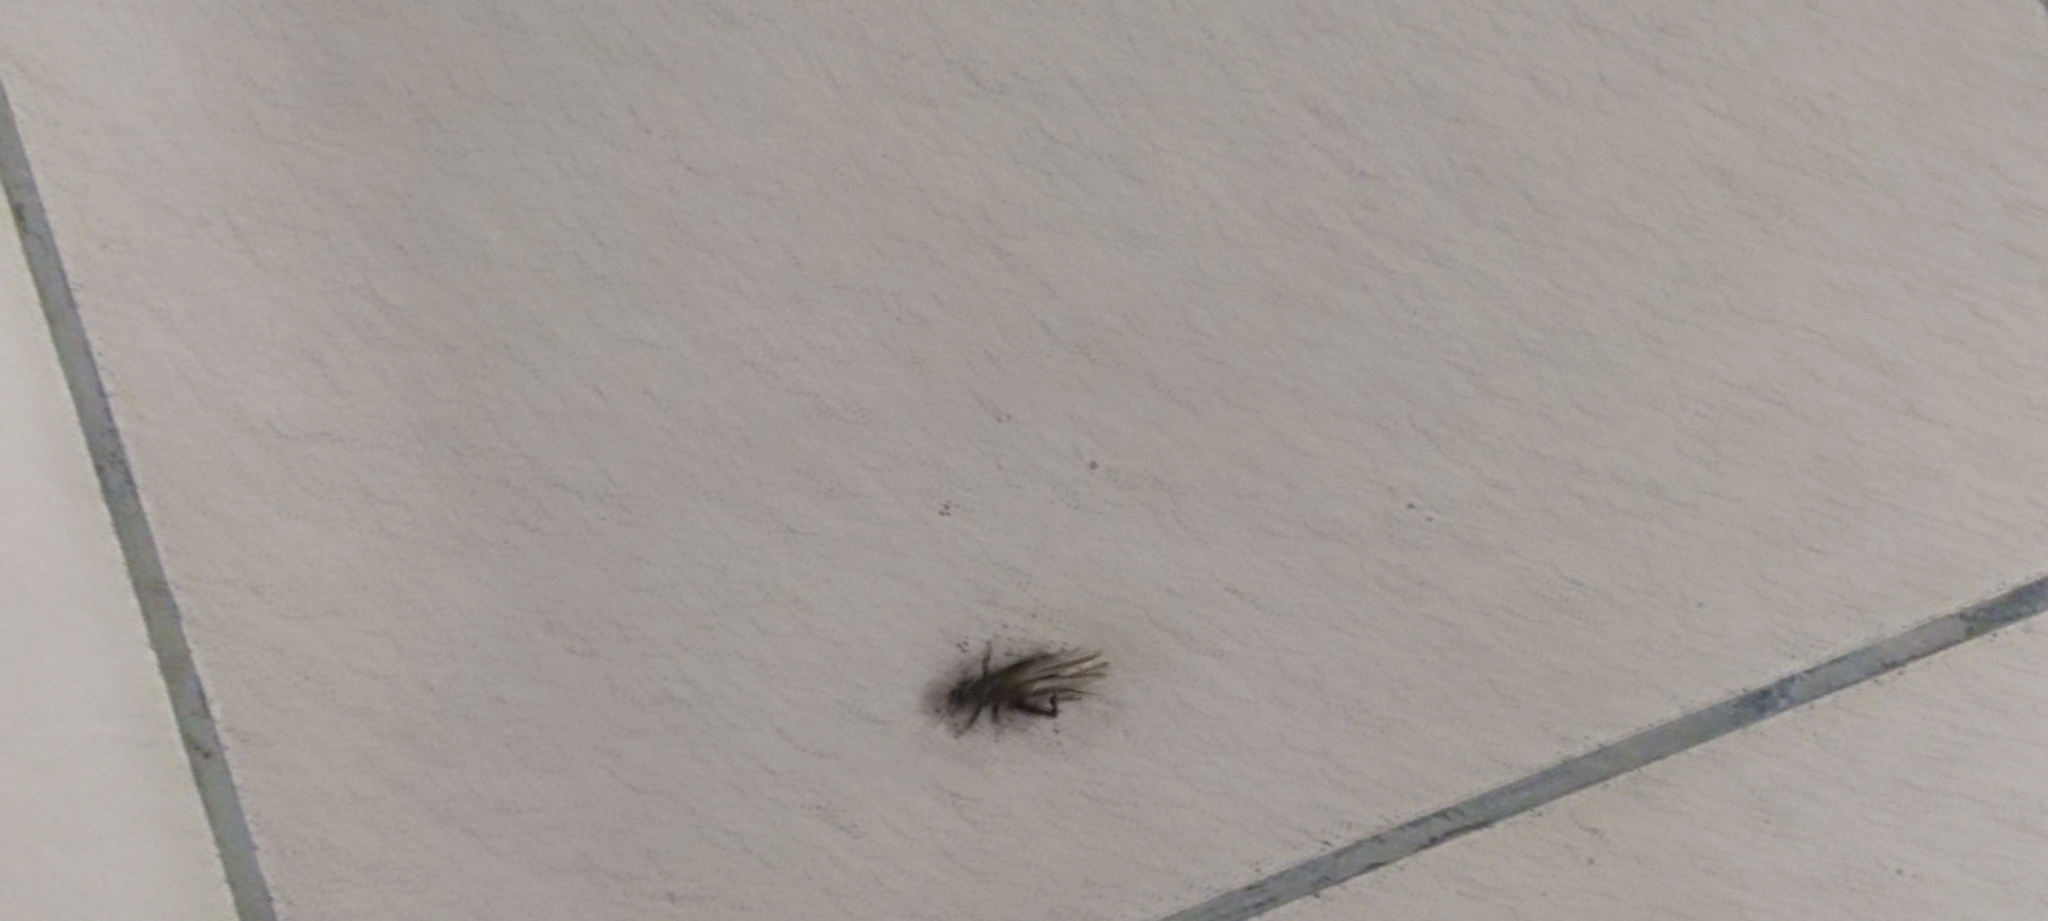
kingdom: Animalia
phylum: Arthropoda
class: Insecta
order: Orthoptera
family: Gryllidae
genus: Melanogryllus
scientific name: Melanogryllus desertus
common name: Desert cricket
